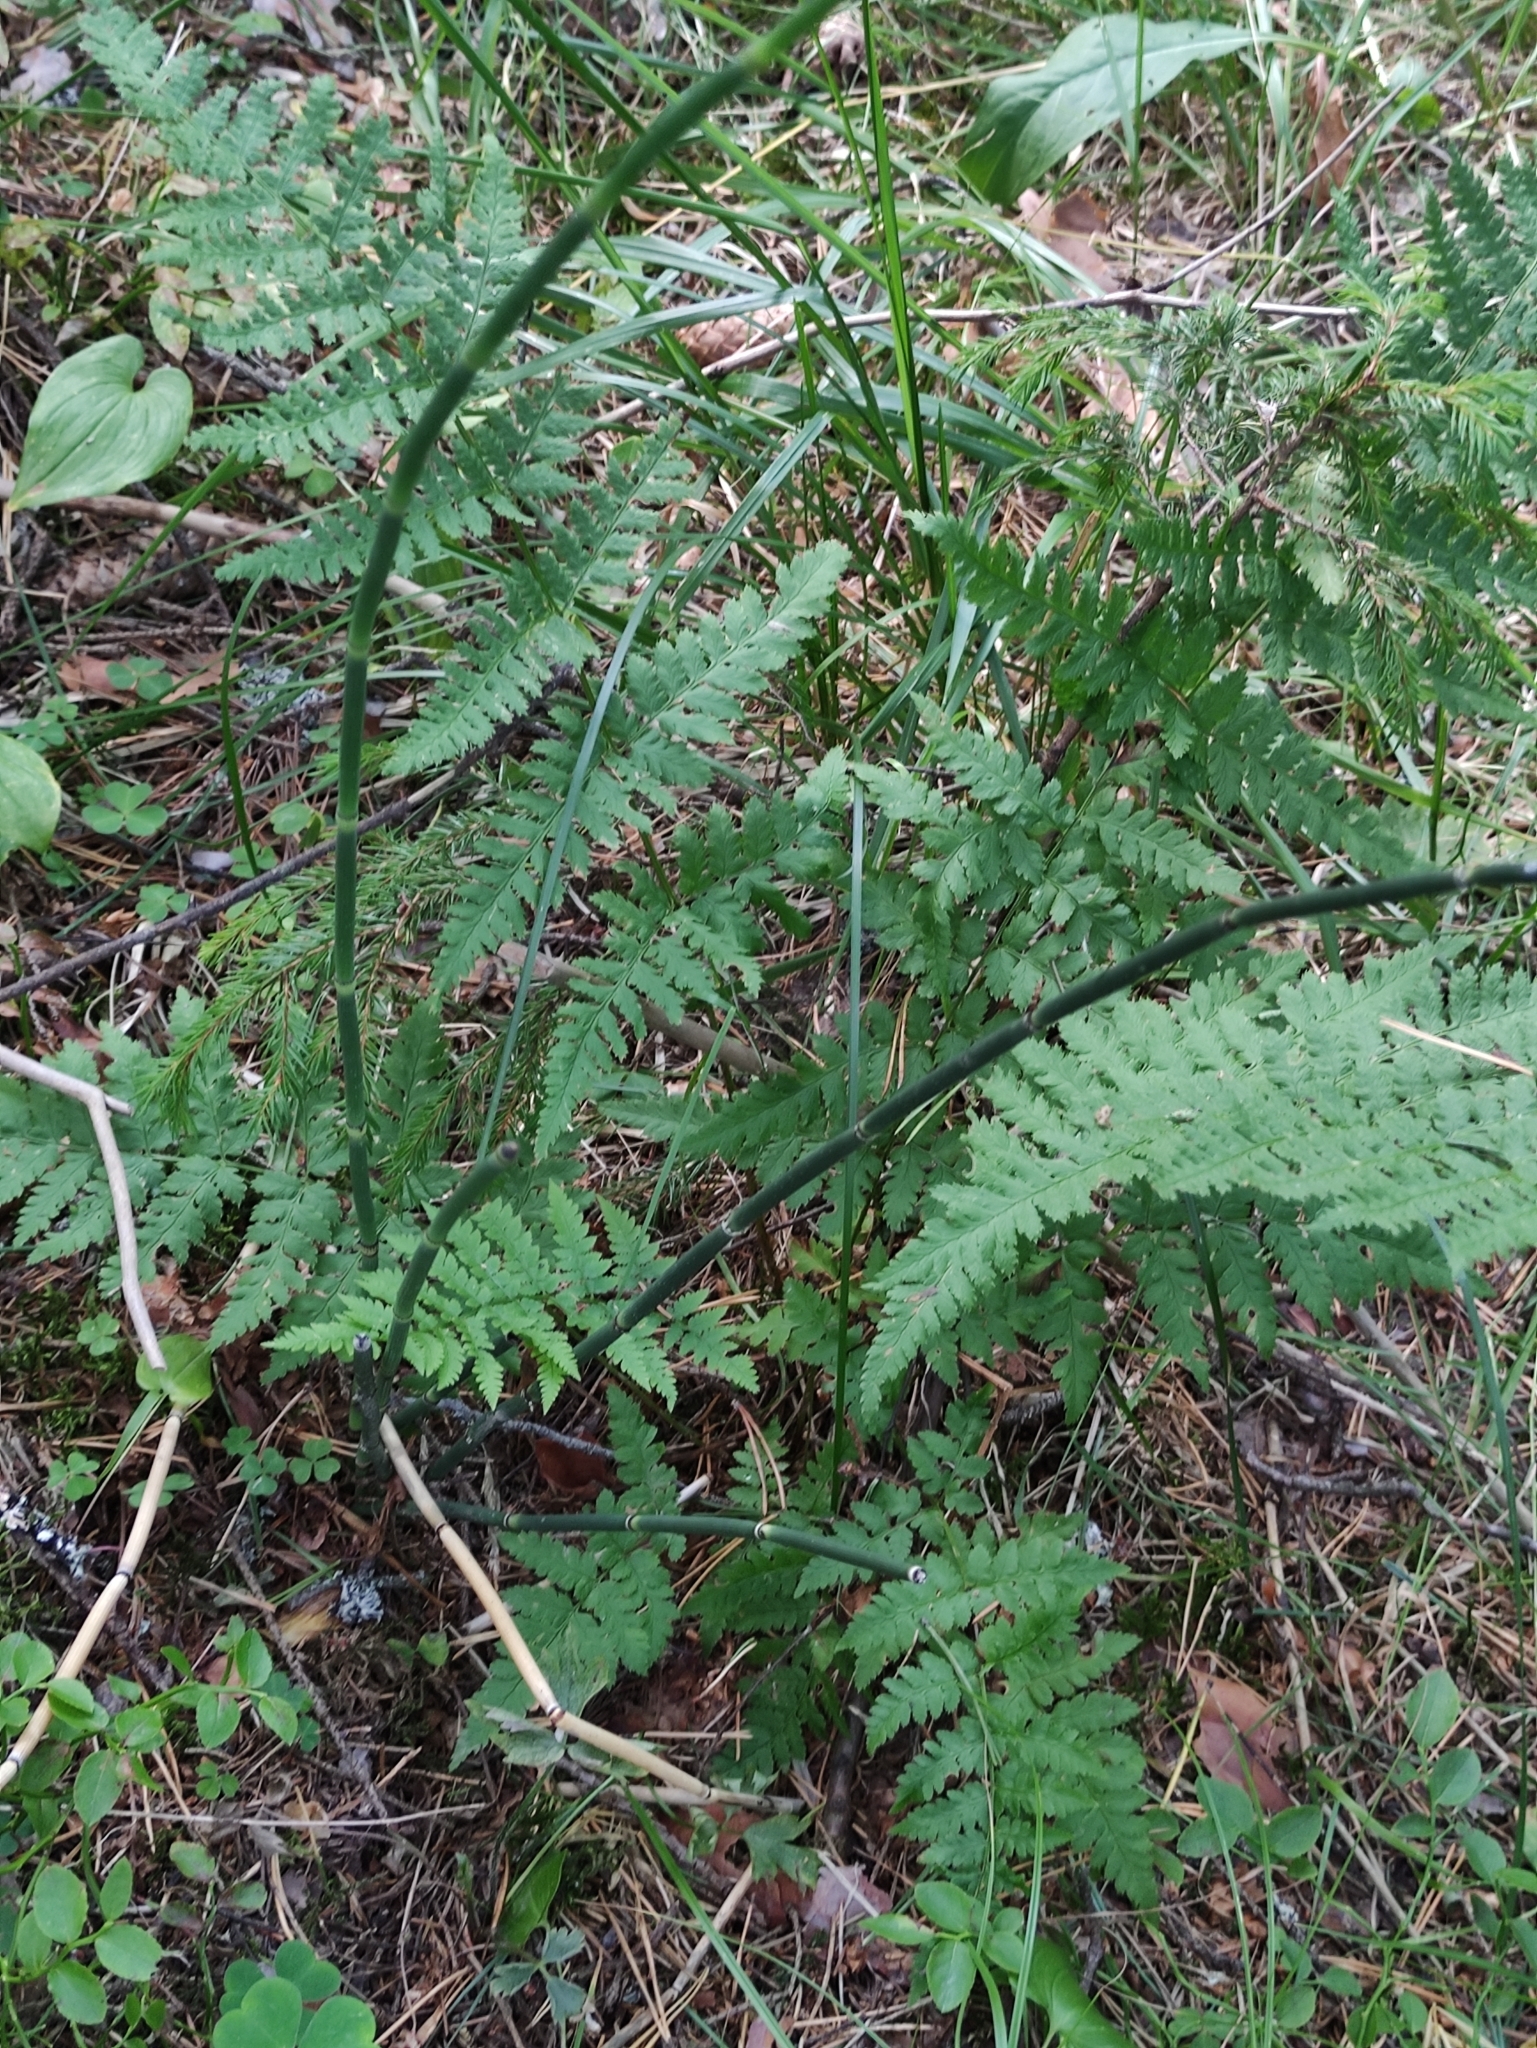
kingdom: Plantae
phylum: Tracheophyta
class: Polypodiopsida
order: Equisetales
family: Equisetaceae
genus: Equisetum
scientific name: Equisetum hyemale
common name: Rough horsetail
